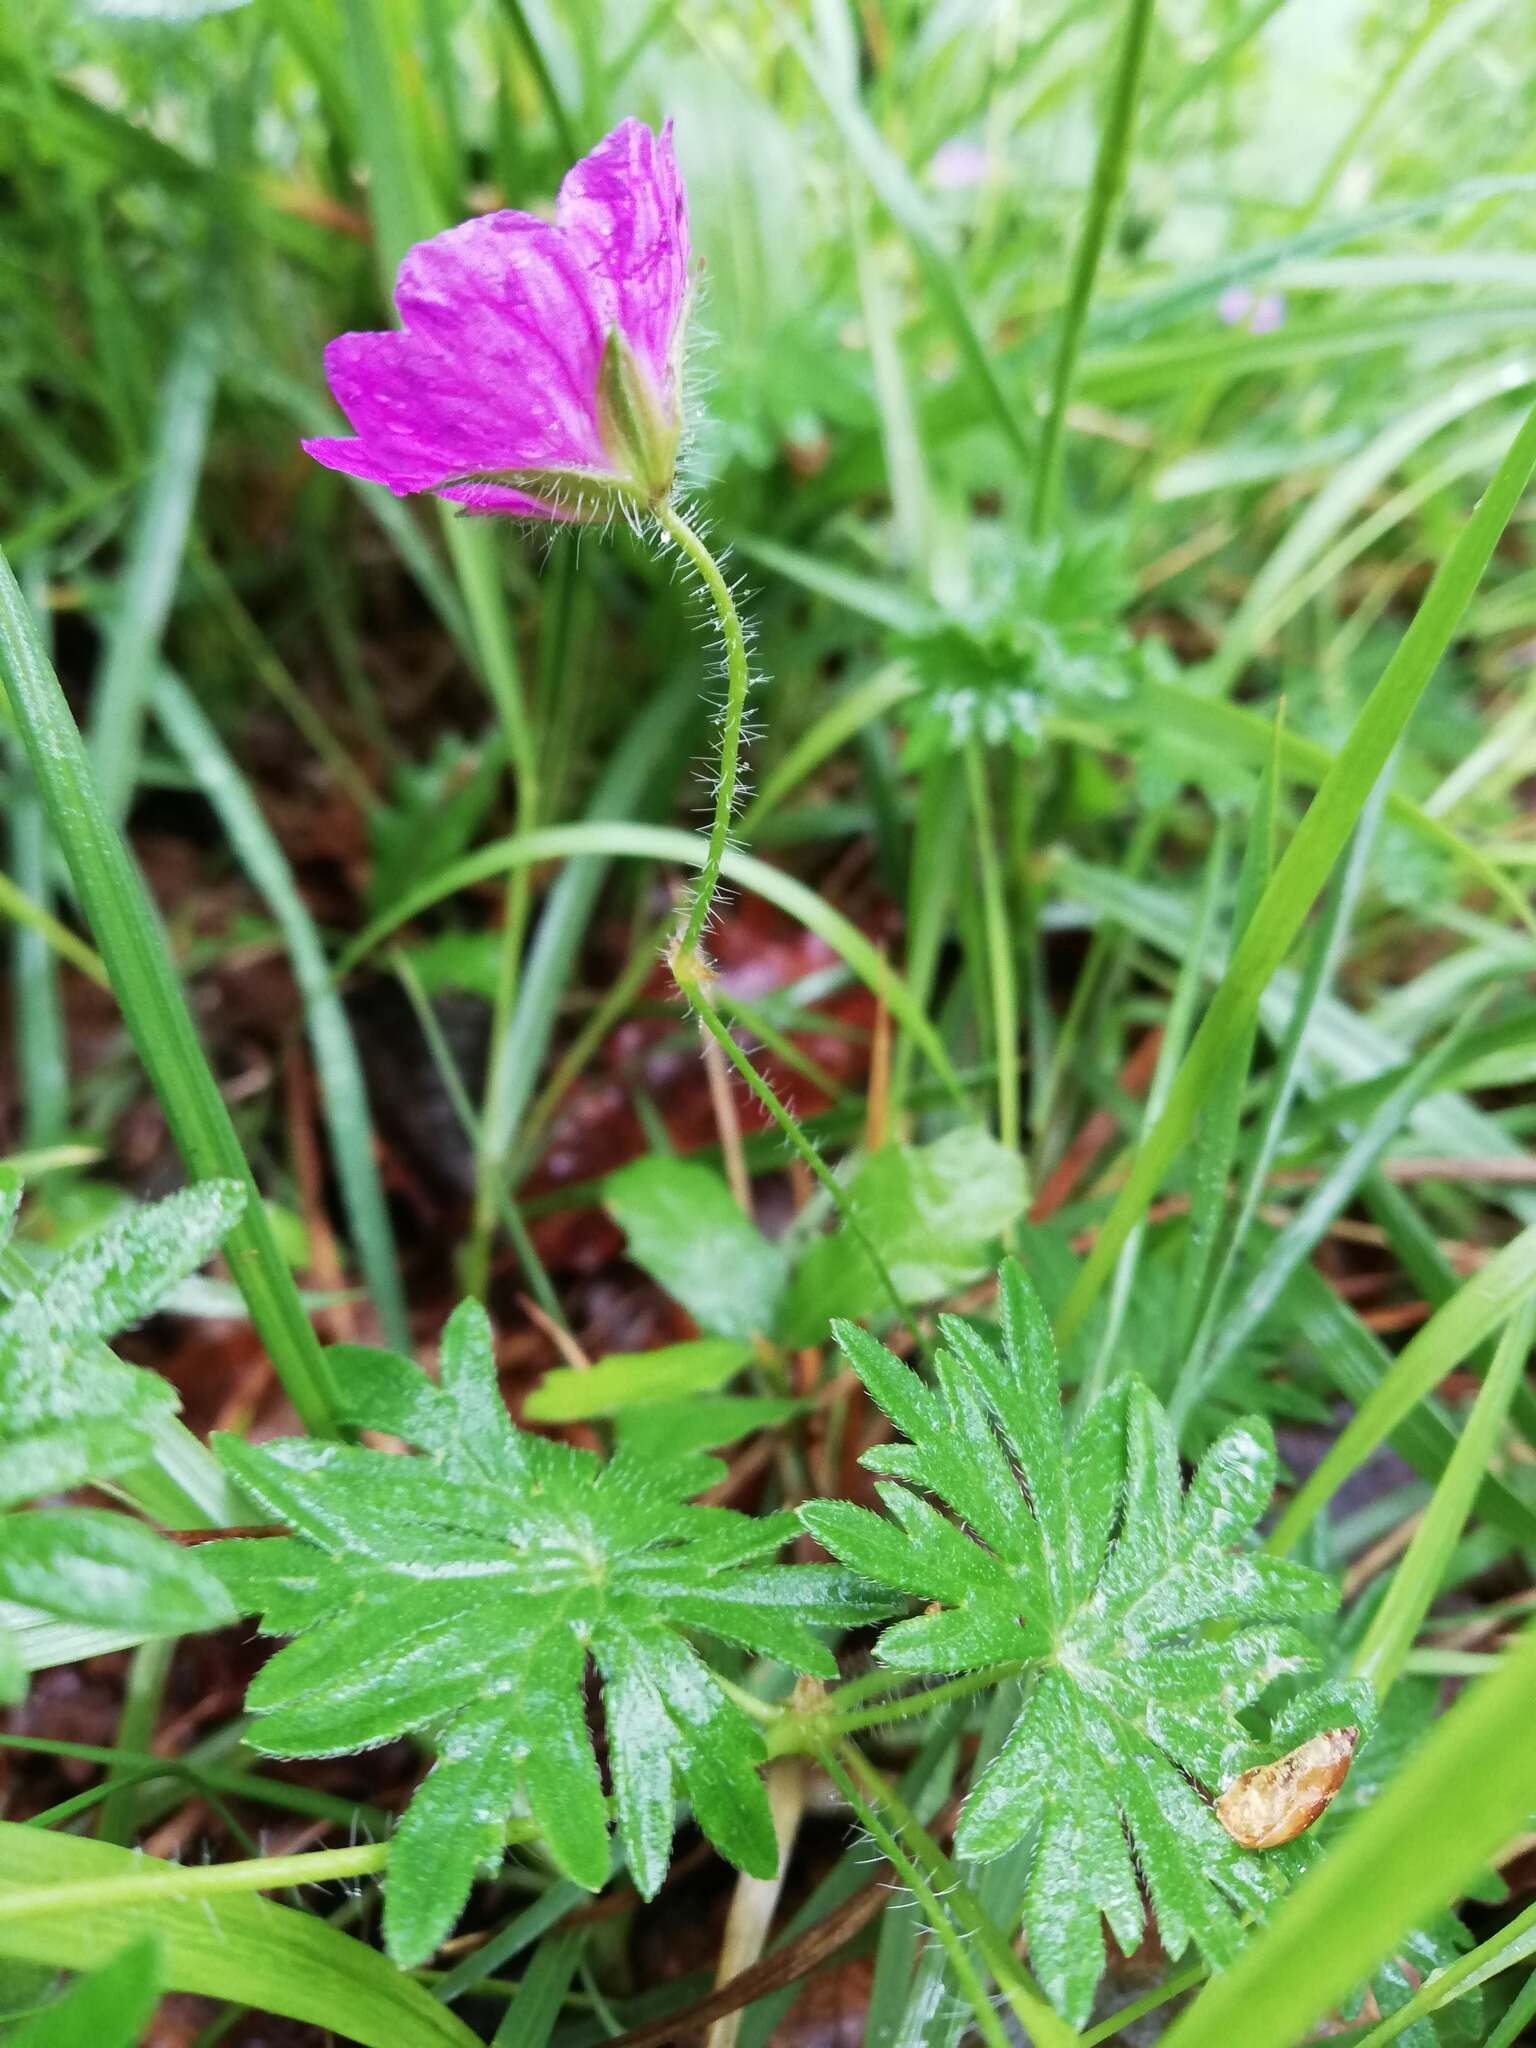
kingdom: Plantae
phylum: Tracheophyta
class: Magnoliopsida
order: Geraniales
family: Geraniaceae
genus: Geranium
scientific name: Geranium sanguineum
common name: Bloody crane's-bill
